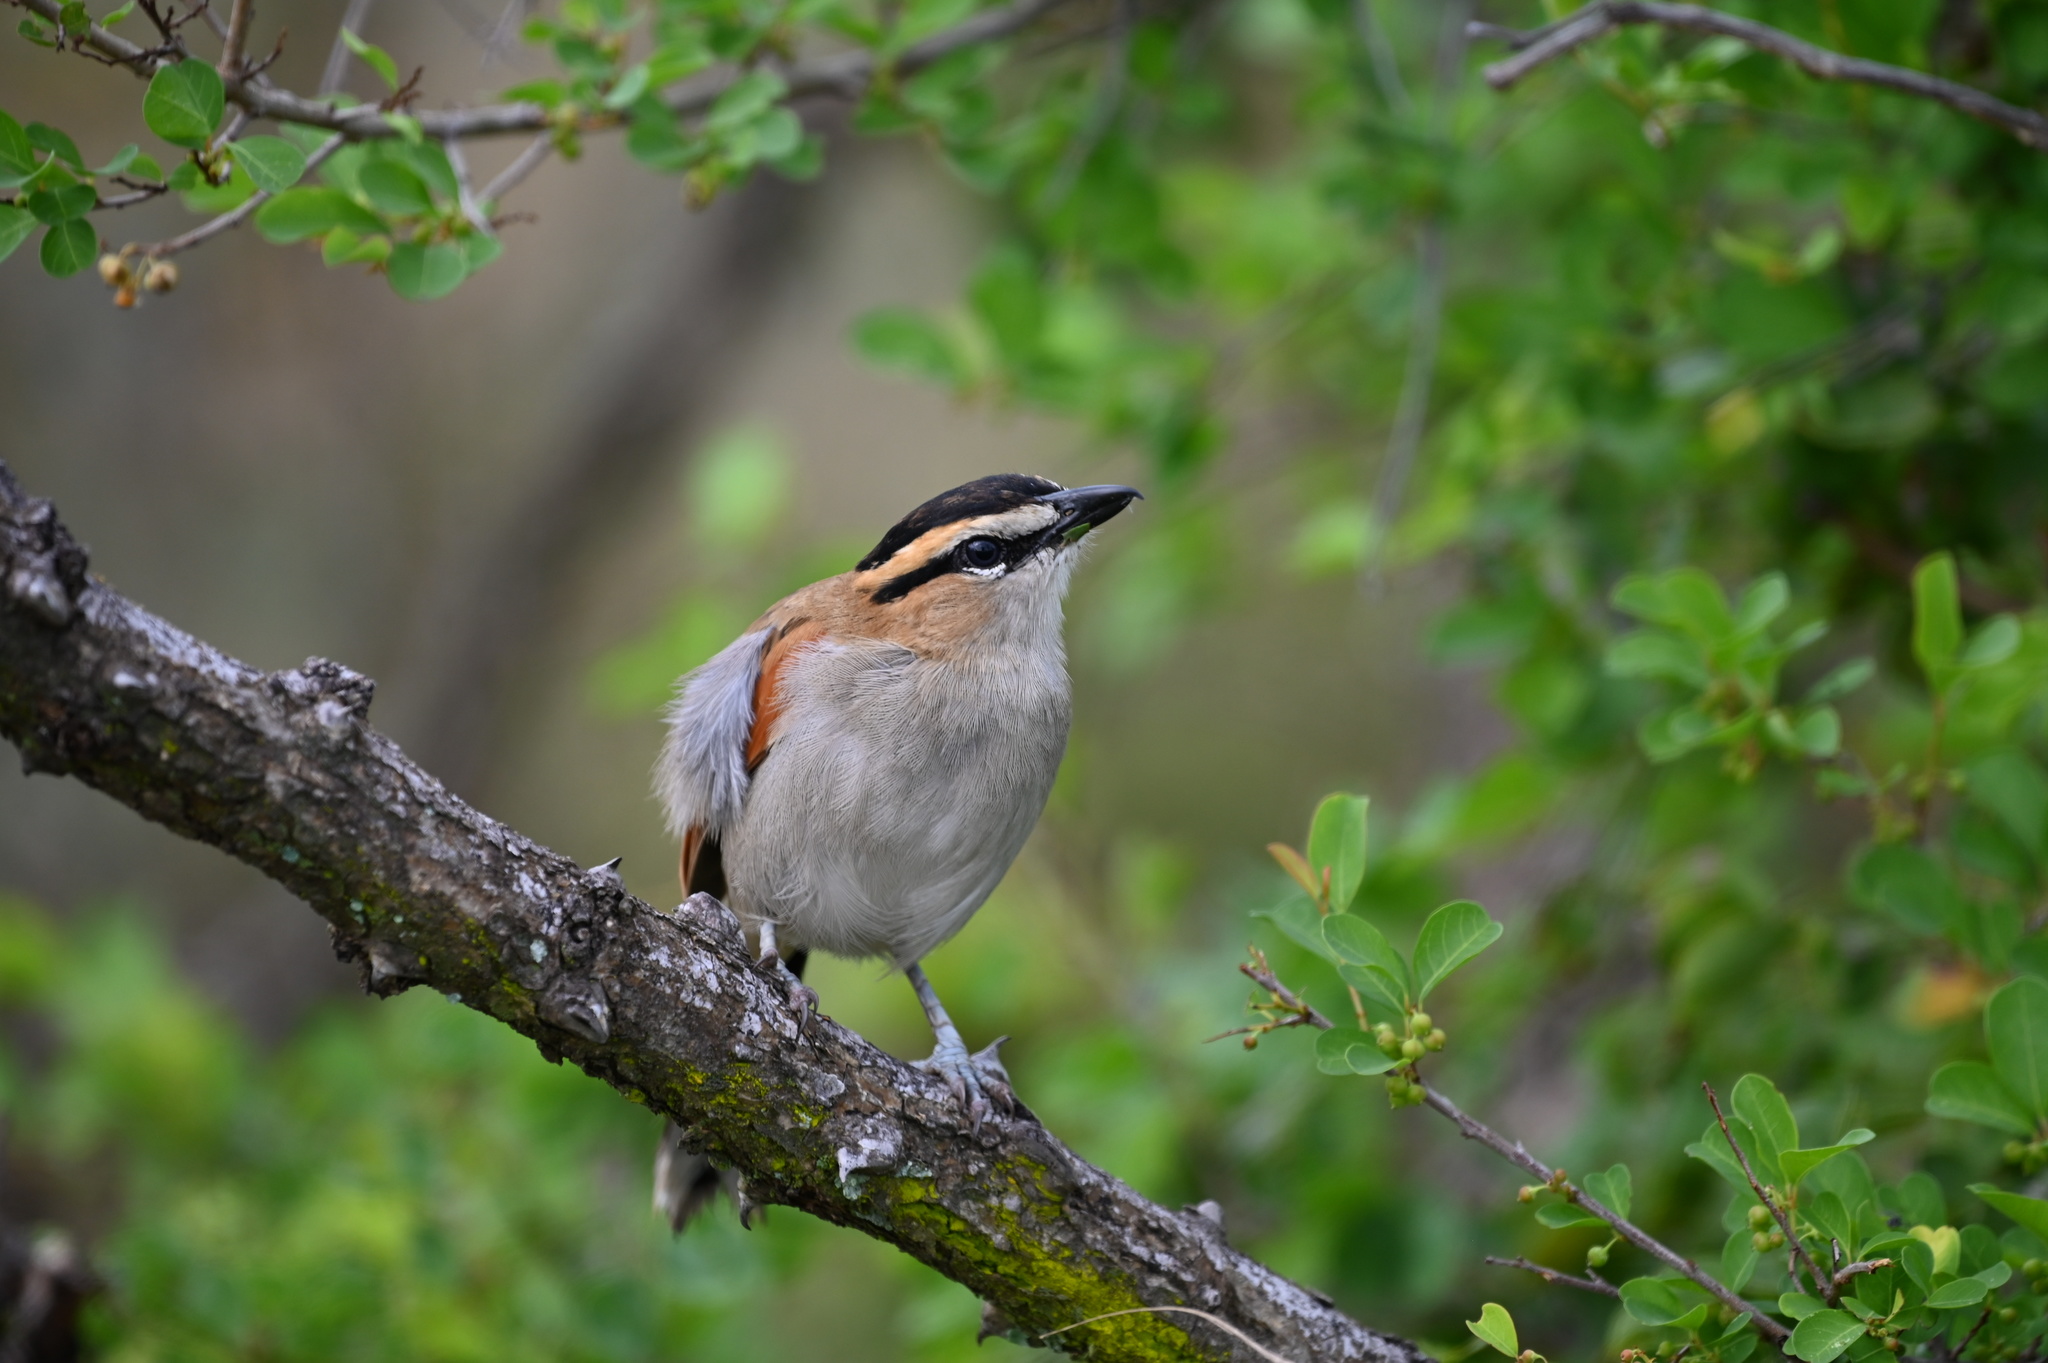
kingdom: Animalia
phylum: Chordata
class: Aves
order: Passeriformes
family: Malaconotidae
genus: Tchagra
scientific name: Tchagra senegalus
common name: Black-crowned tchagra
